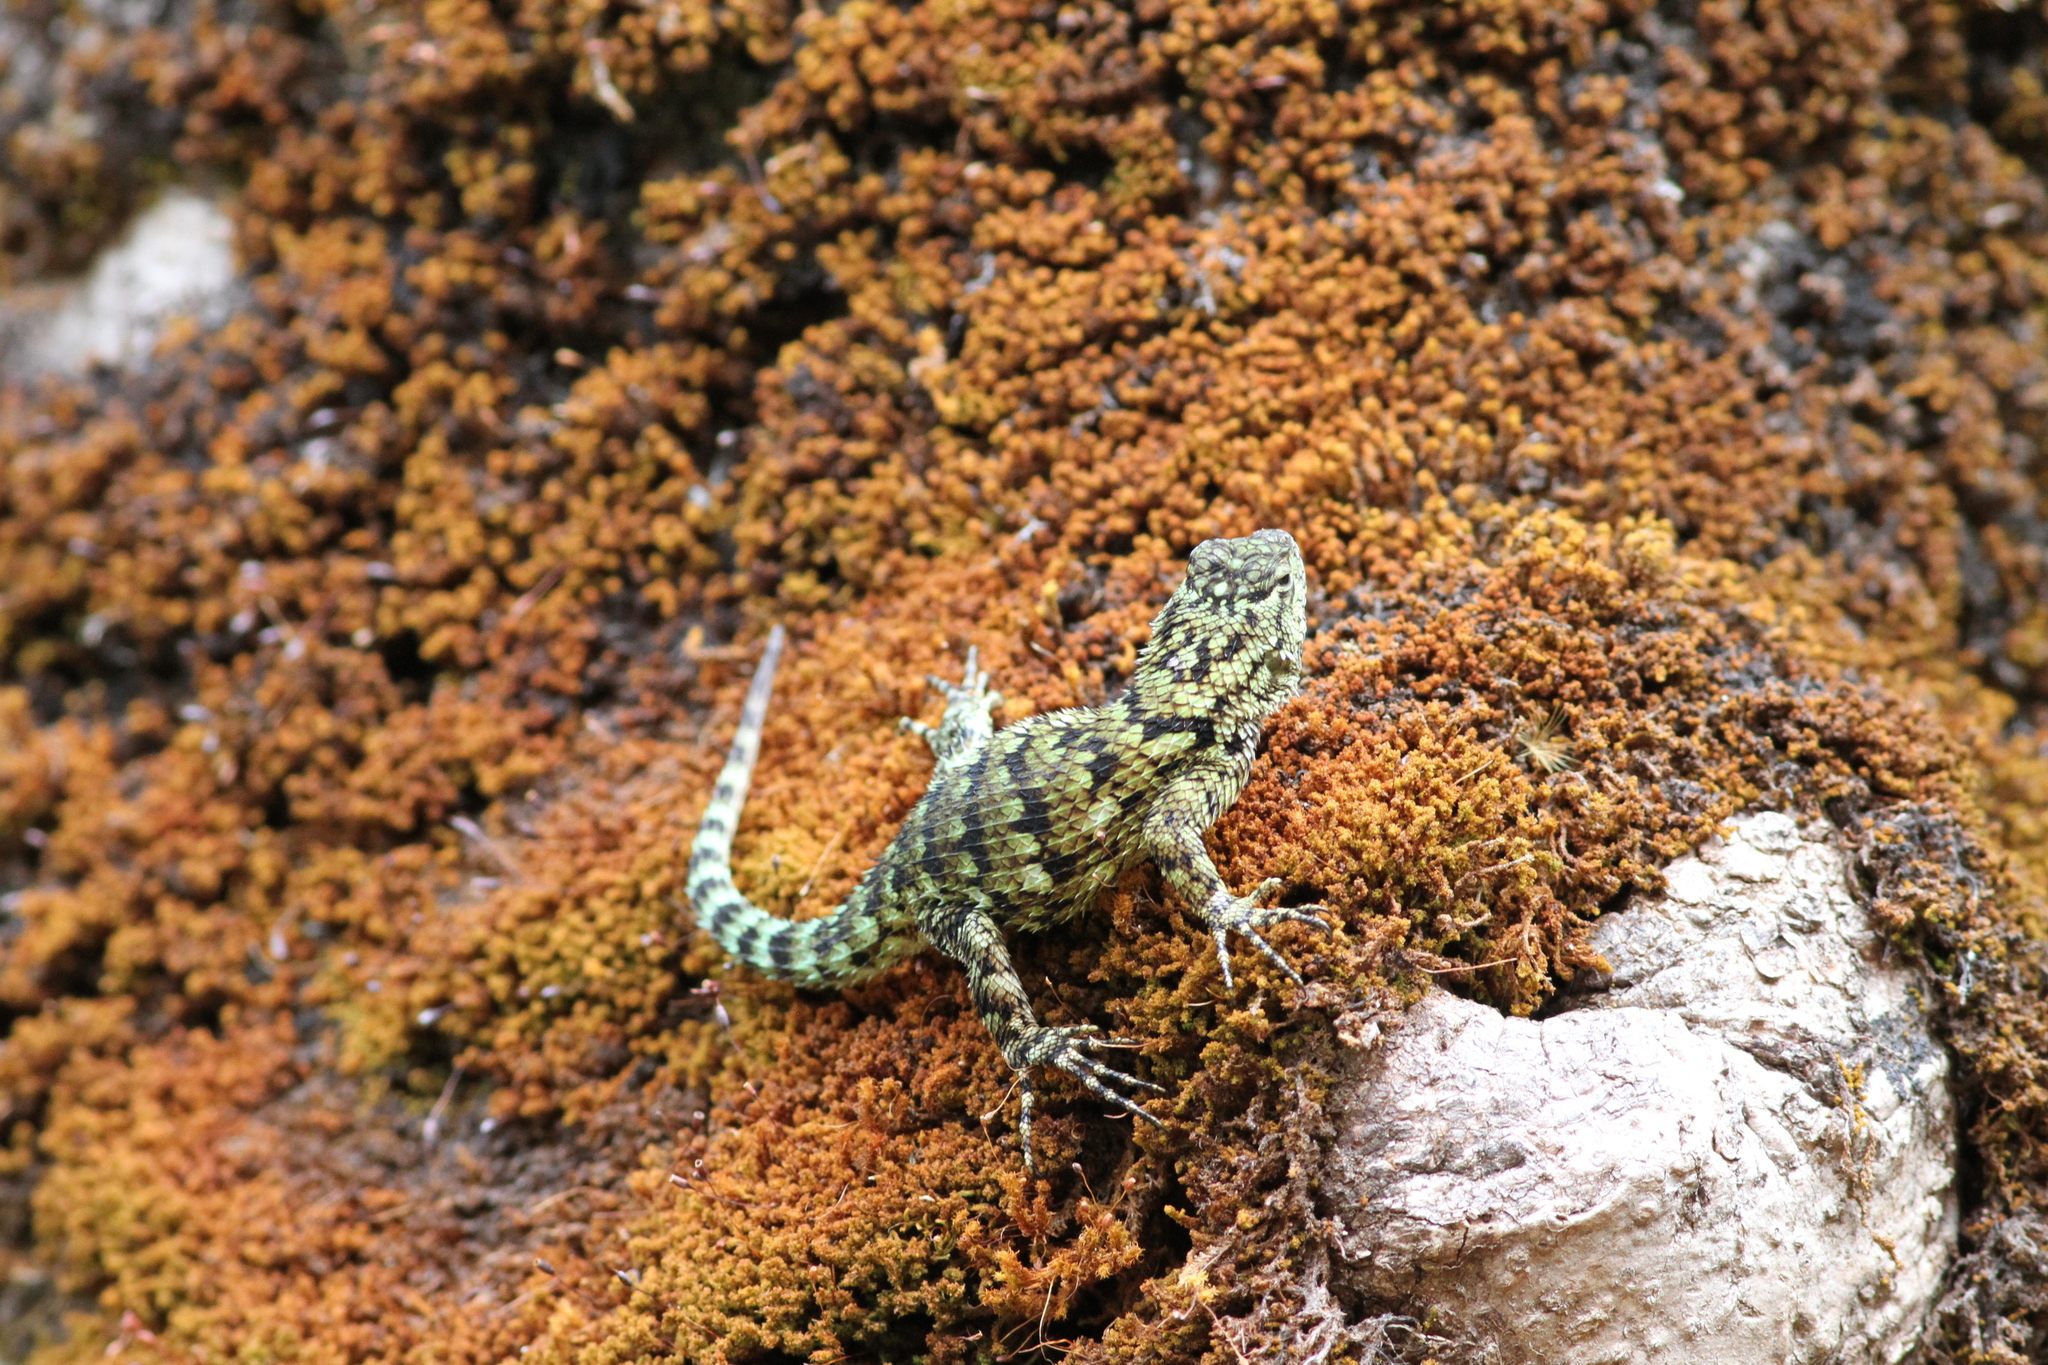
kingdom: Animalia
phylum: Chordata
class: Squamata
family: Phrynosomatidae
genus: Sceloporus
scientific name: Sceloporus malachiticus
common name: Green spiny lizard
